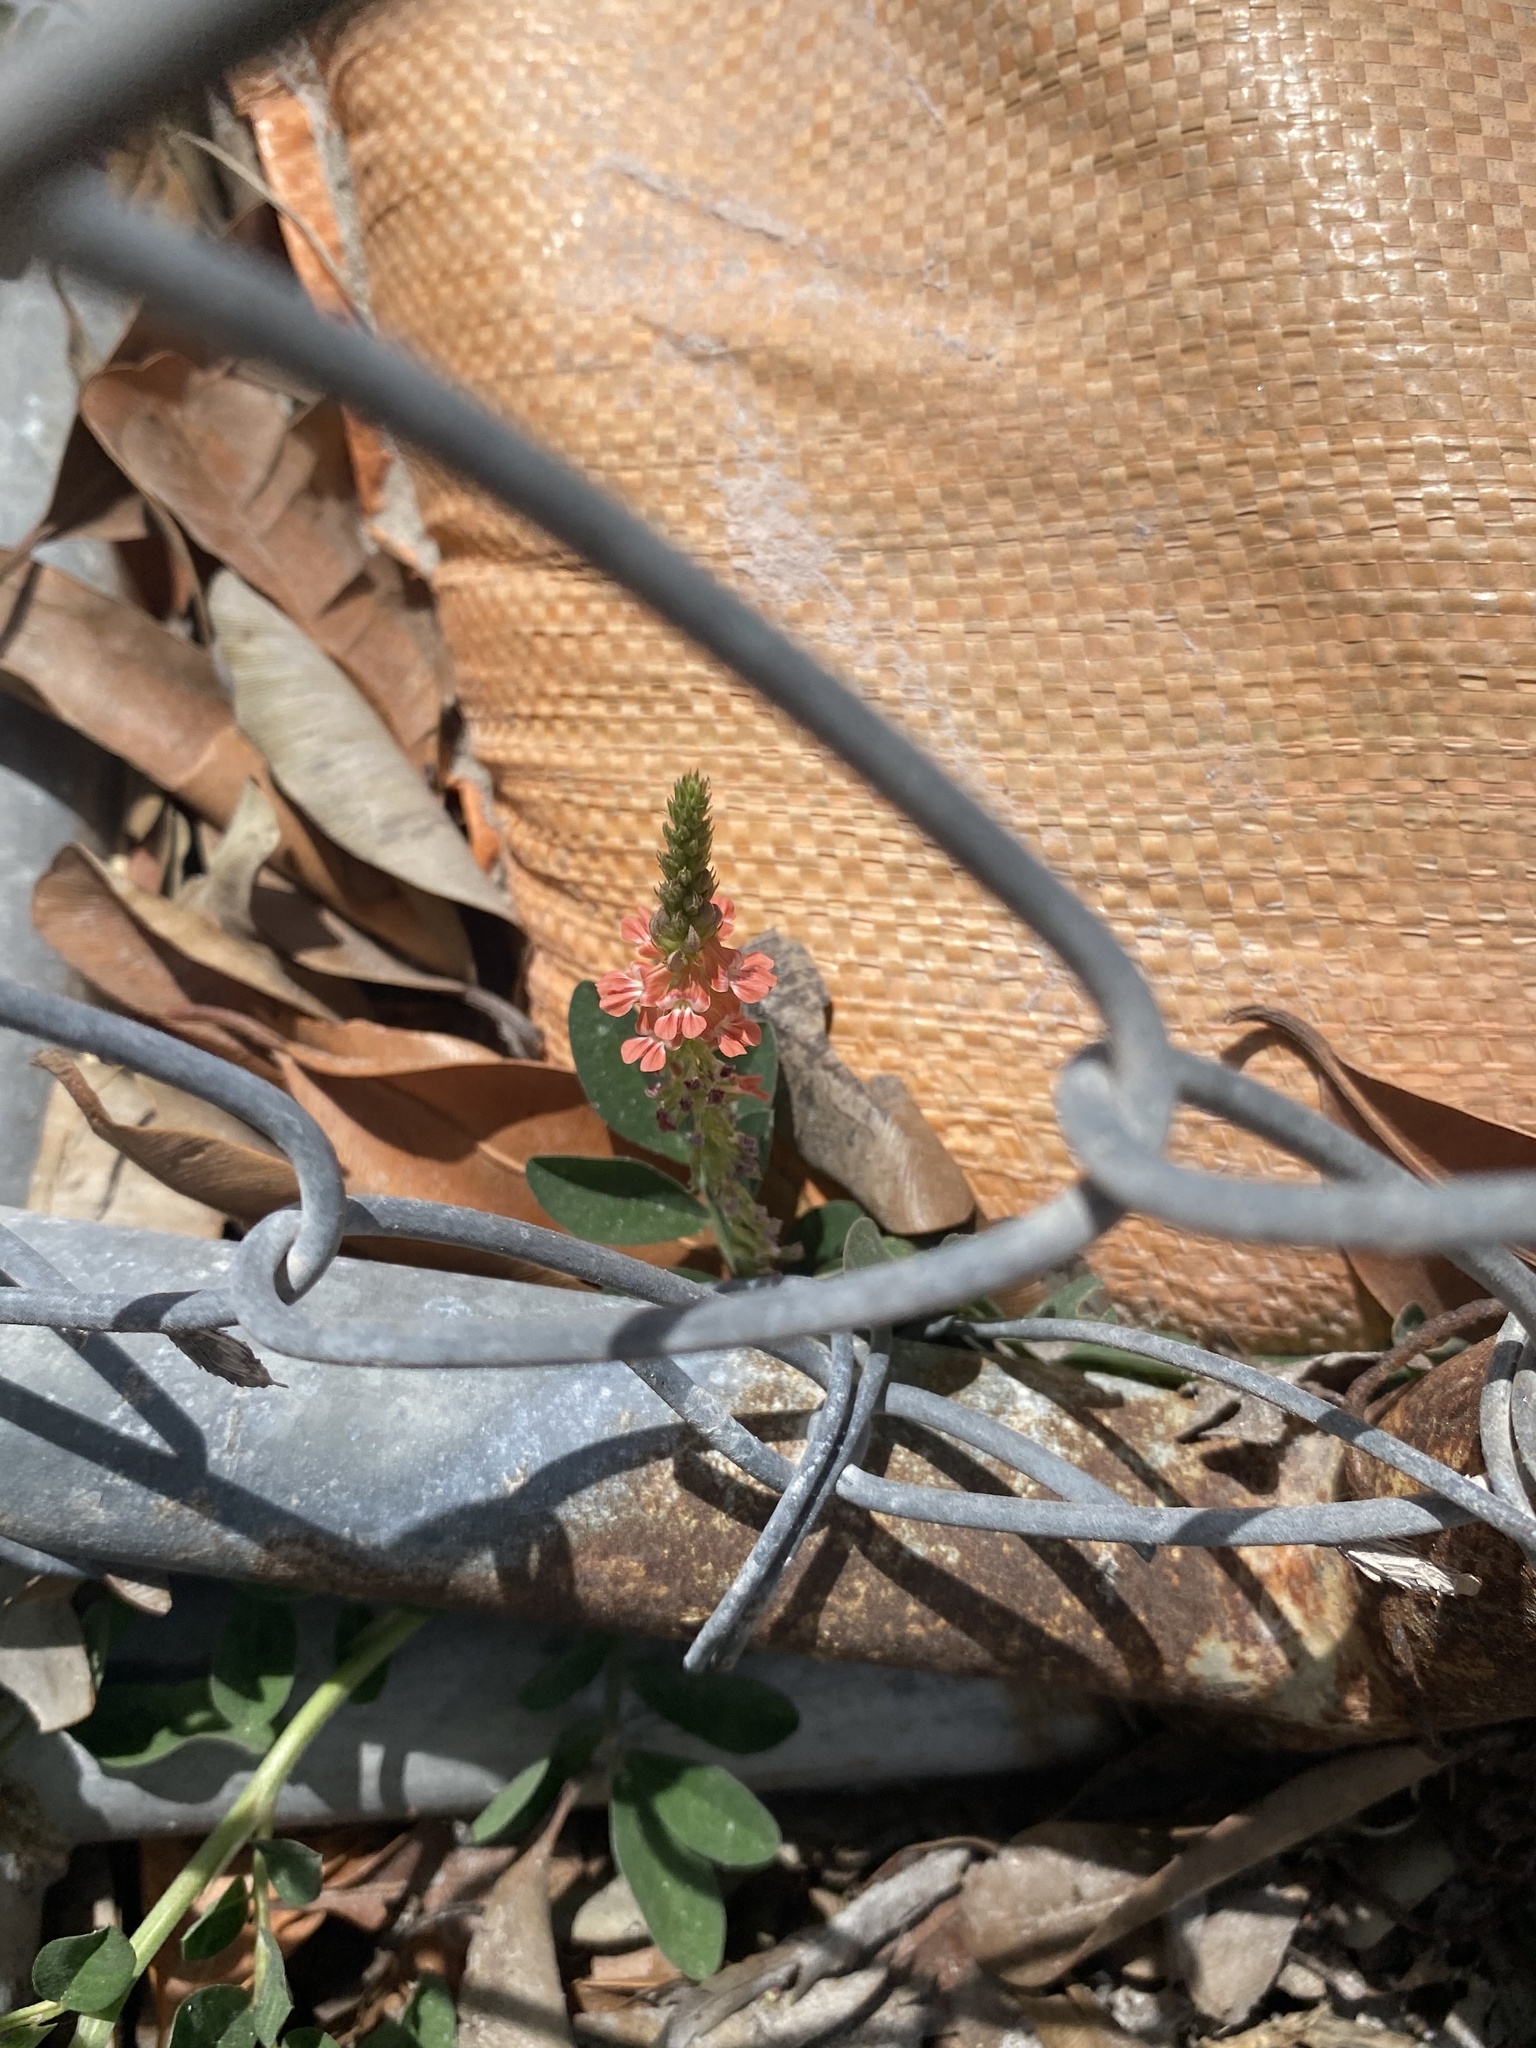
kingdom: Plantae
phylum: Tracheophyta
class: Magnoliopsida
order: Fabales
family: Fabaceae
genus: Indigofera
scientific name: Indigofera spicata
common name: Creeping indigo
